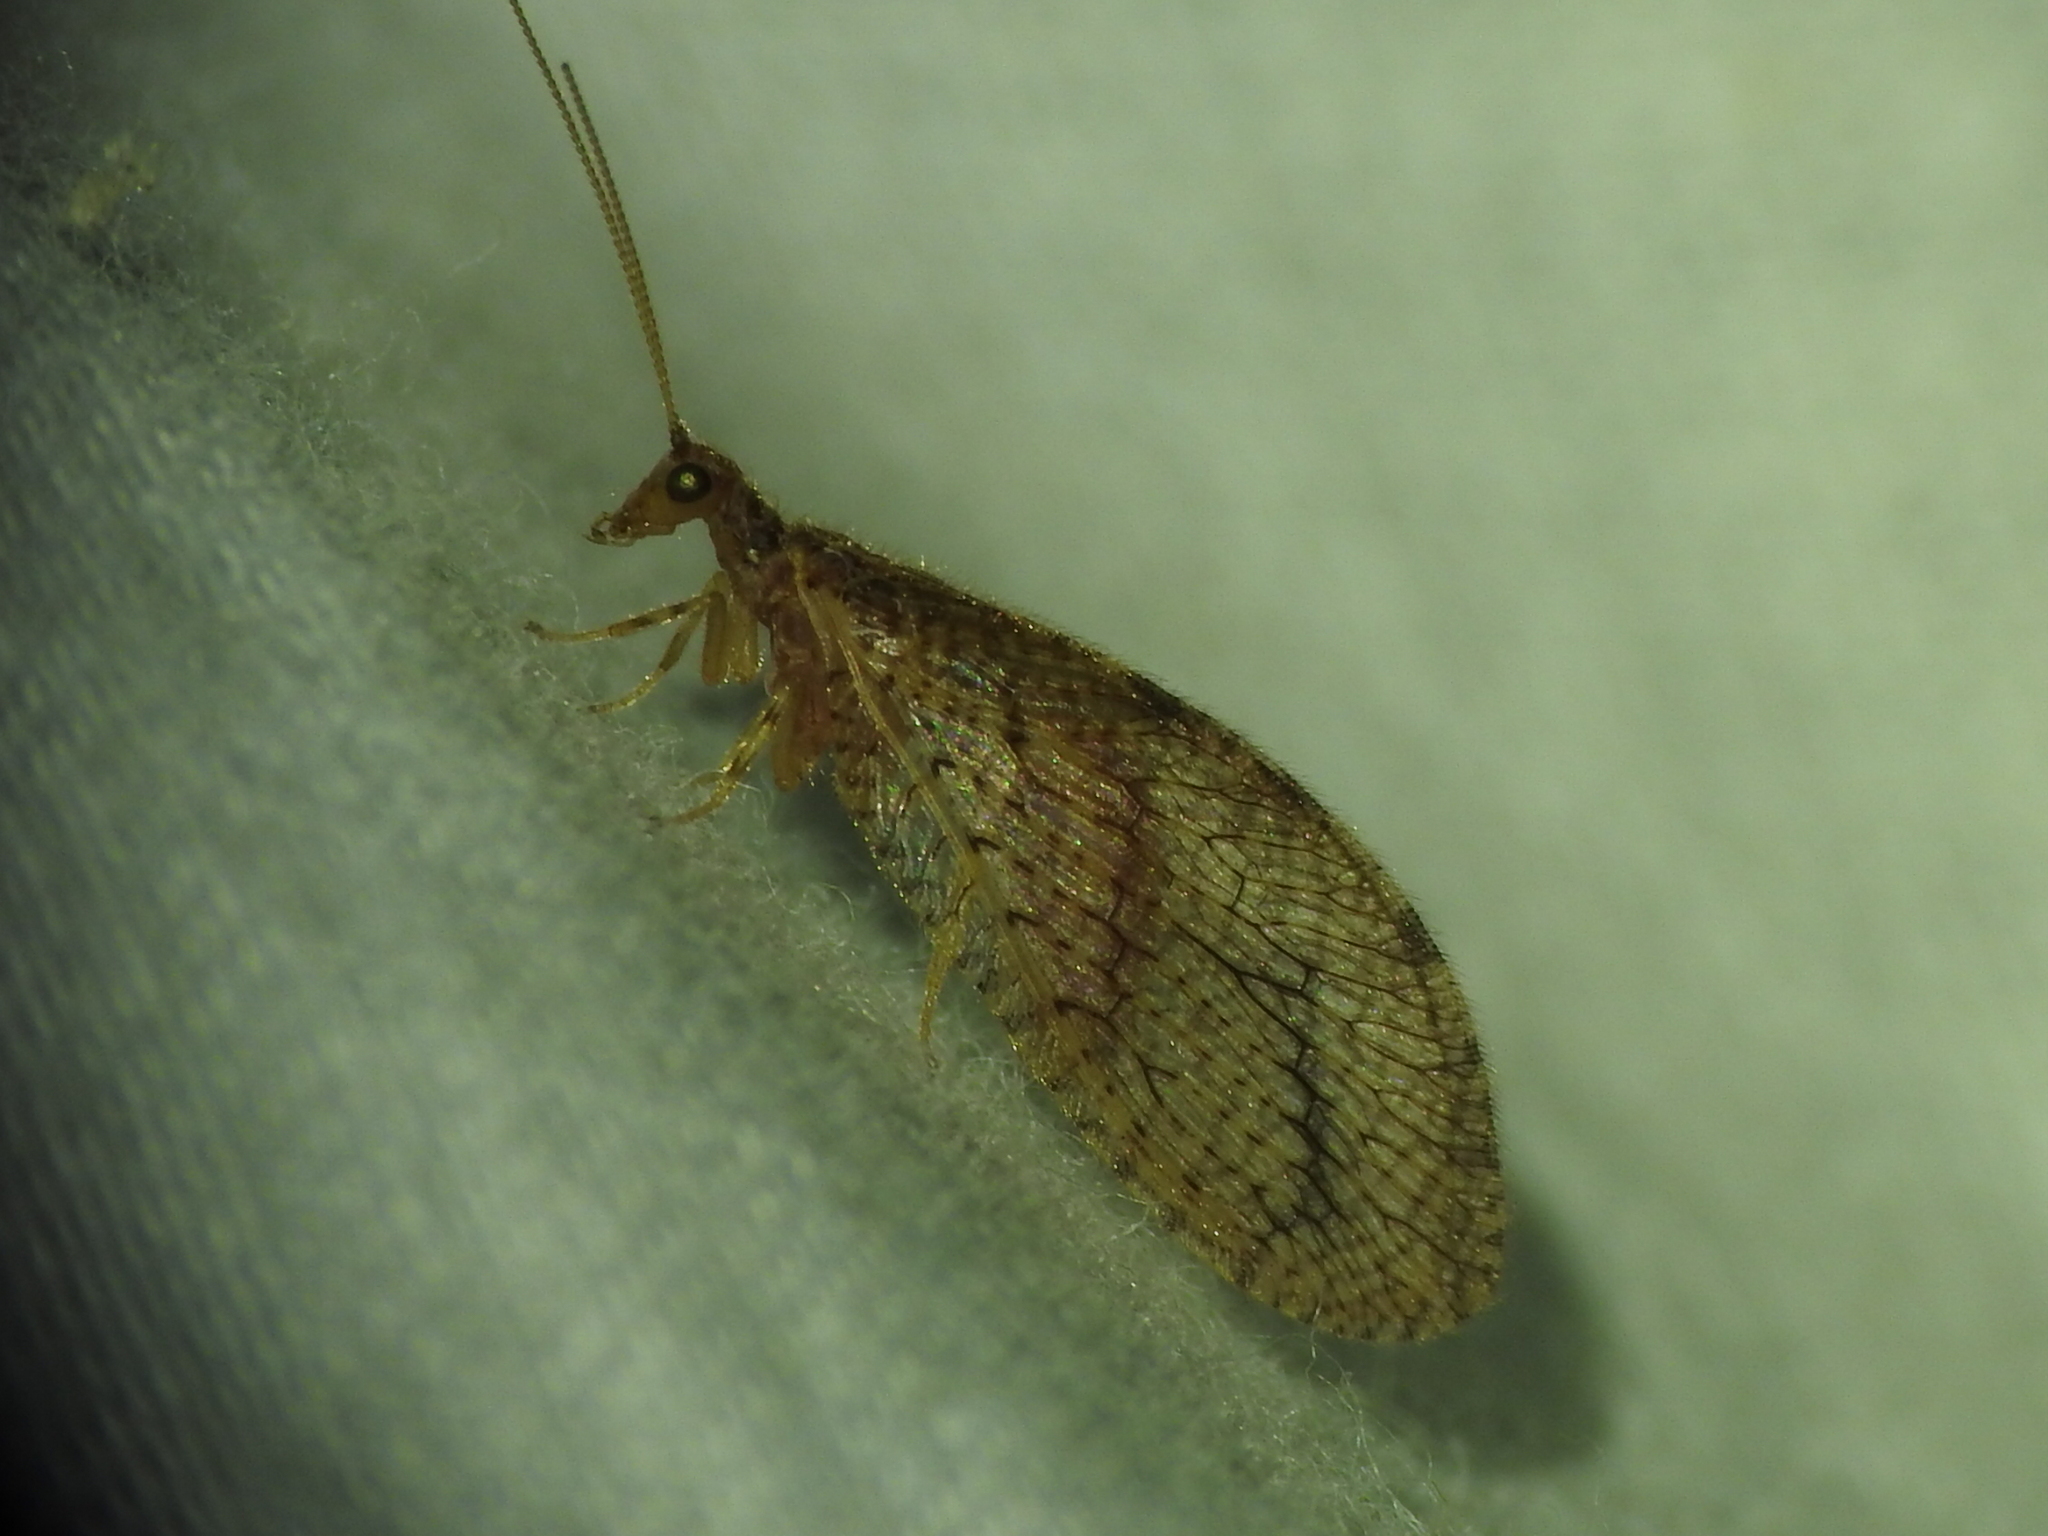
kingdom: Animalia
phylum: Arthropoda
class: Insecta
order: Neuroptera
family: Hemerobiidae
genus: Micromus
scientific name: Micromus posticus
